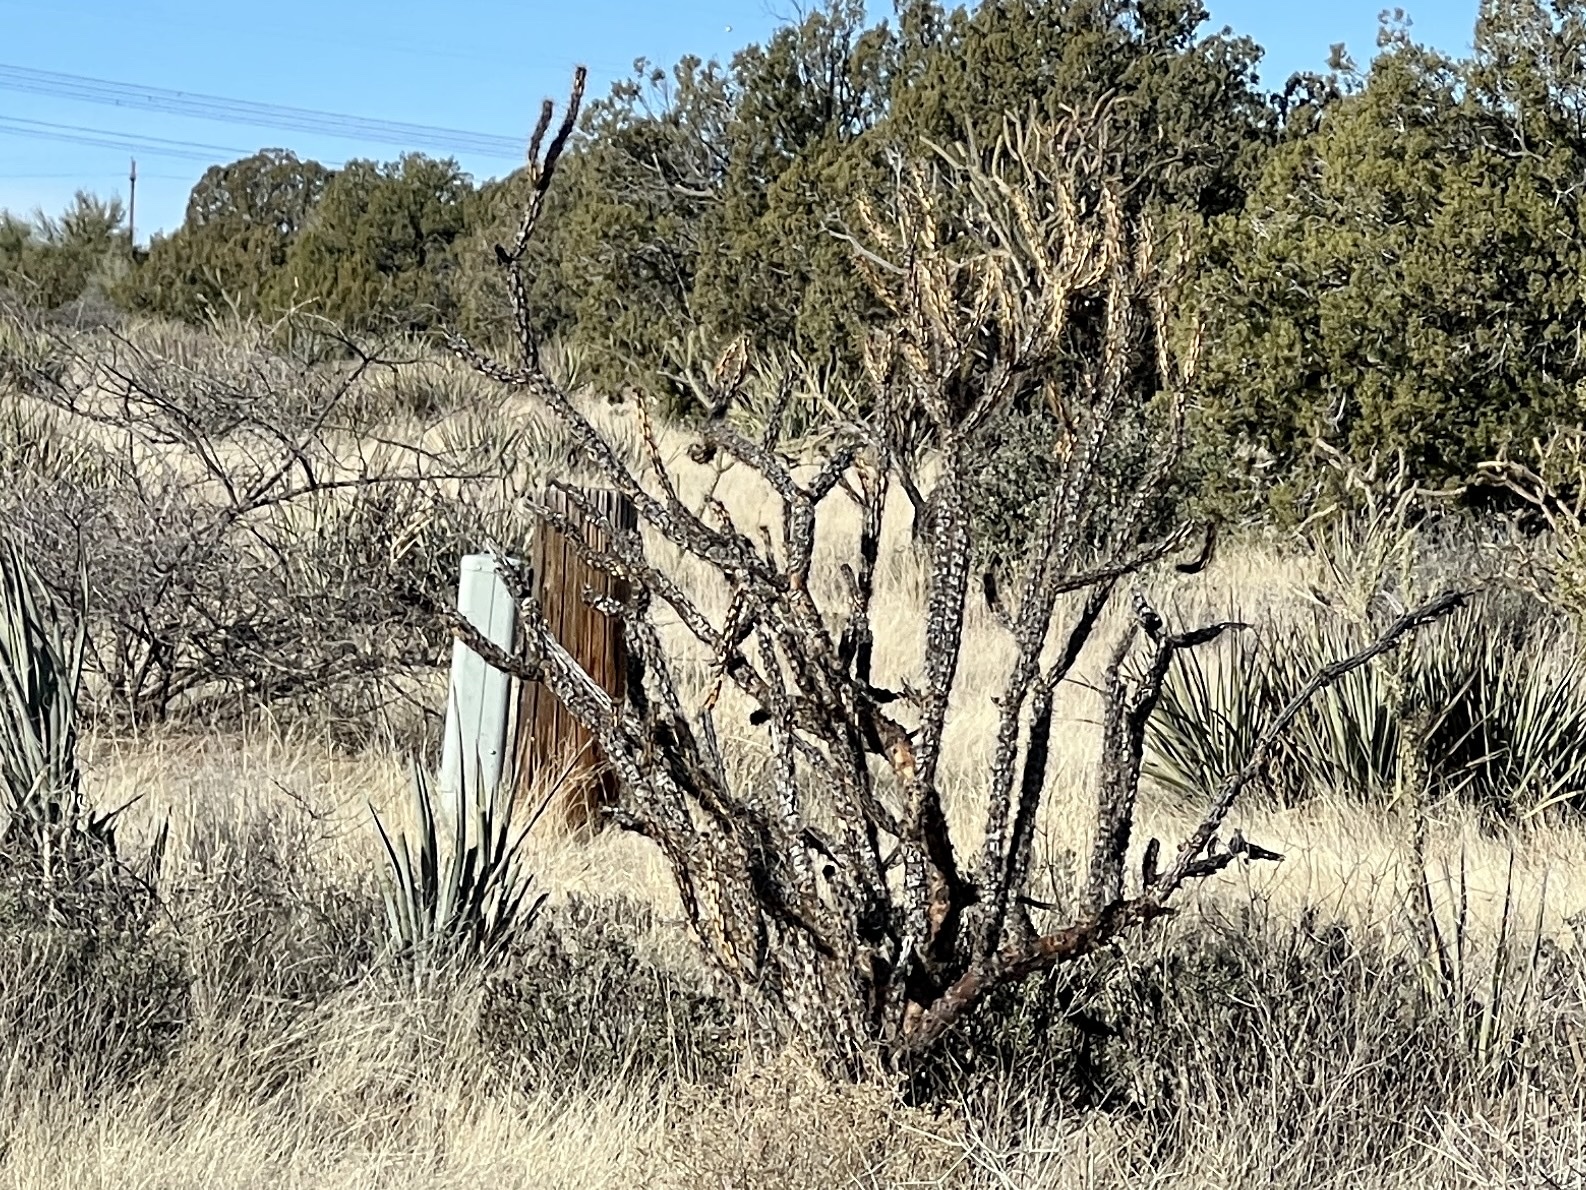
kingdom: Plantae
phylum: Tracheophyta
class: Magnoliopsida
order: Caryophyllales
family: Cactaceae
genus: Cylindropuntia
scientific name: Cylindropuntia acanthocarpa
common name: Buckhorn cholla
